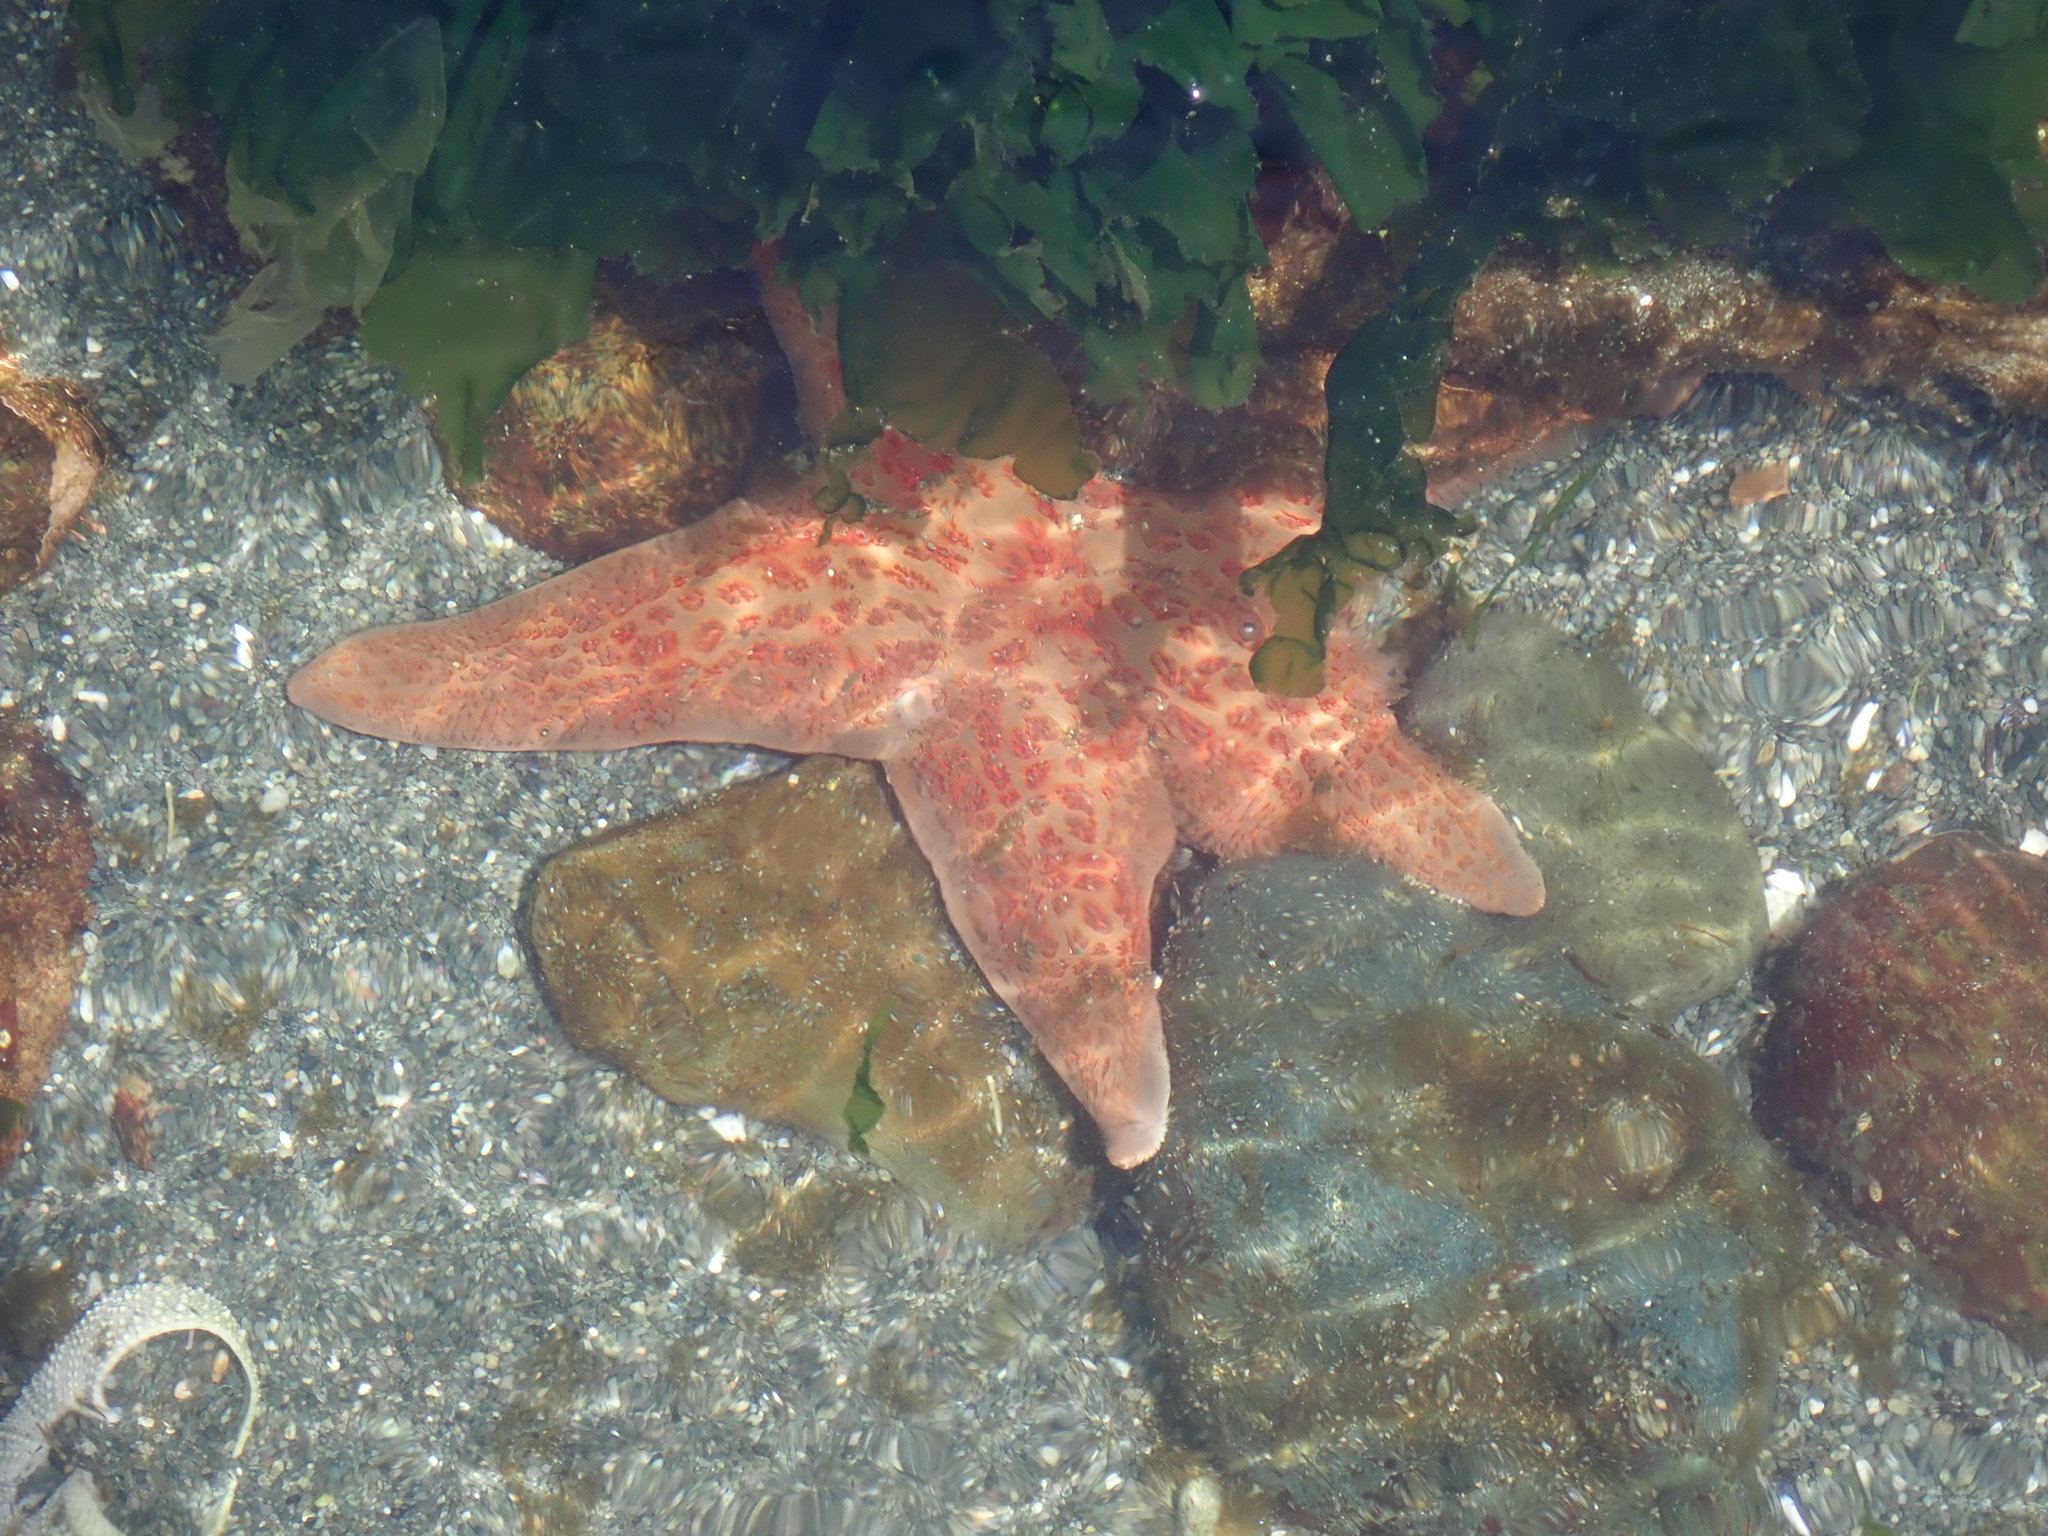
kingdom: Animalia
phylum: Echinodermata
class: Asteroidea
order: Valvatida
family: Asteropseidae
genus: Dermasterias
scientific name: Dermasterias imbricata
